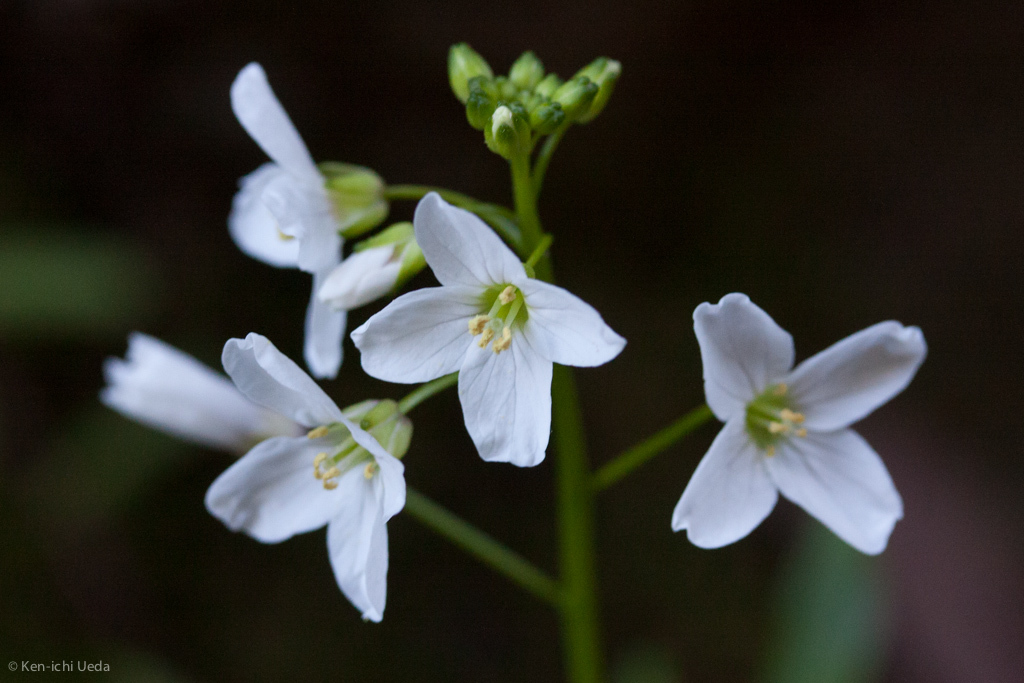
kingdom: Plantae
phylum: Tracheophyta
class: Magnoliopsida
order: Brassicales
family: Brassicaceae
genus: Cardamine
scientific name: Cardamine californica
